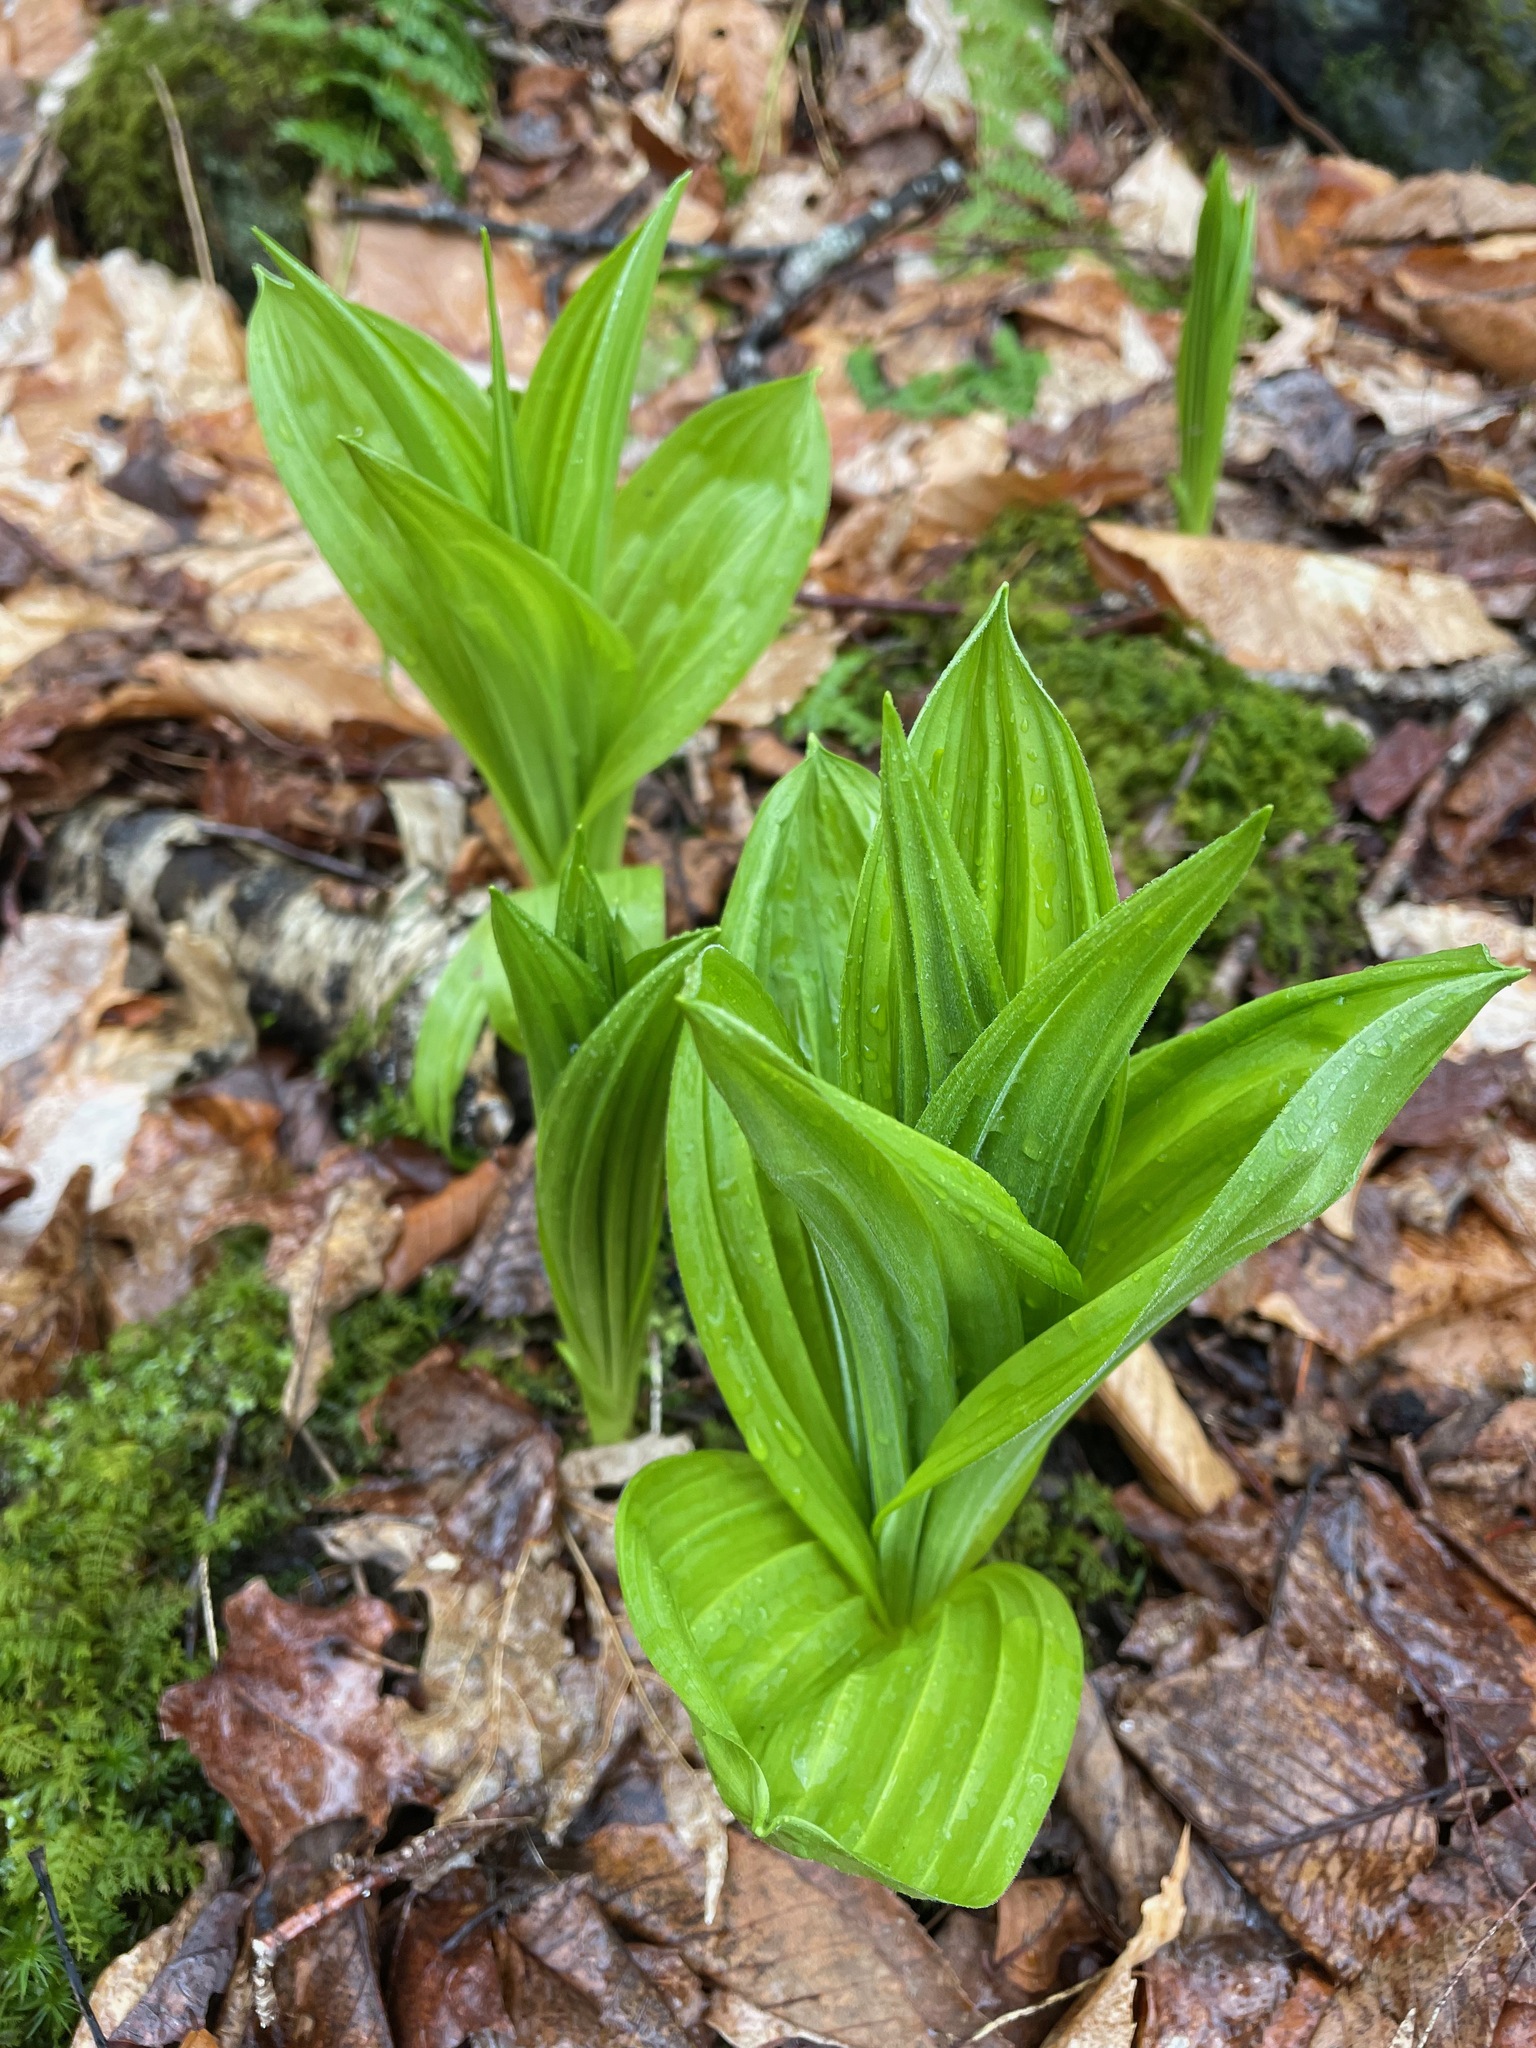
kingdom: Plantae
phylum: Tracheophyta
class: Liliopsida
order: Liliales
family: Melanthiaceae
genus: Veratrum
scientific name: Veratrum viride
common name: American false hellebore
